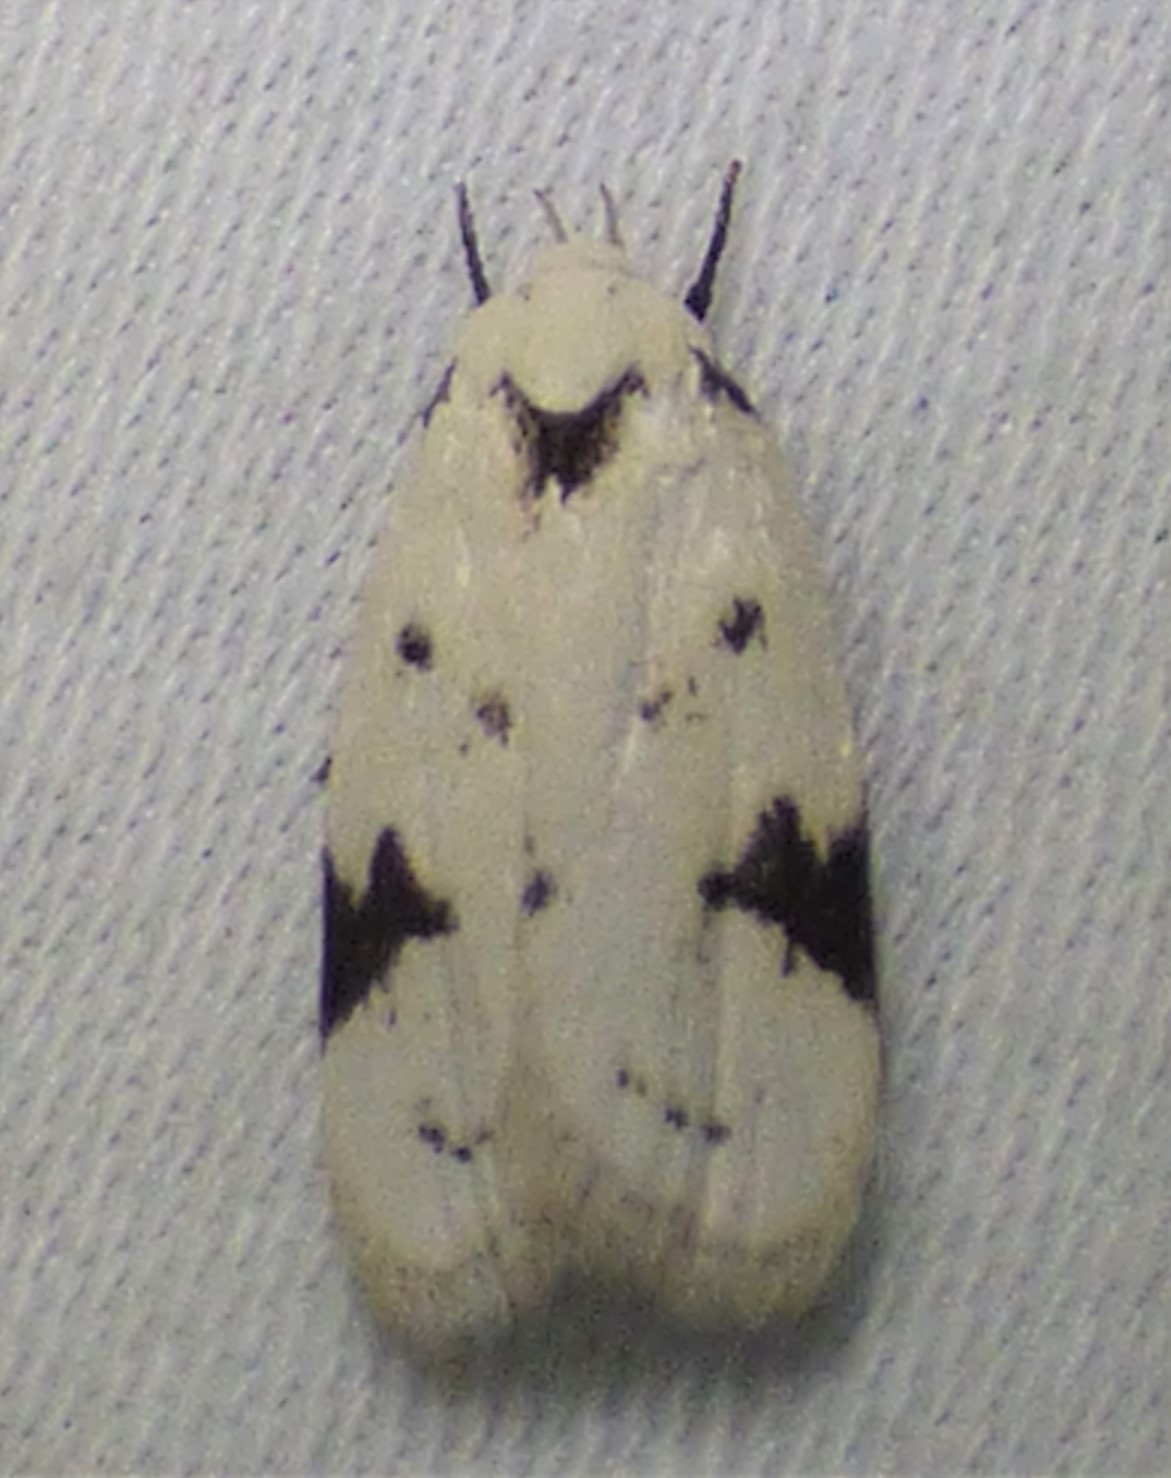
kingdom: Animalia
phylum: Arthropoda
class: Insecta
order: Lepidoptera
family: Oecophoridae
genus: Inga
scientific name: Inga sparsiciliella
